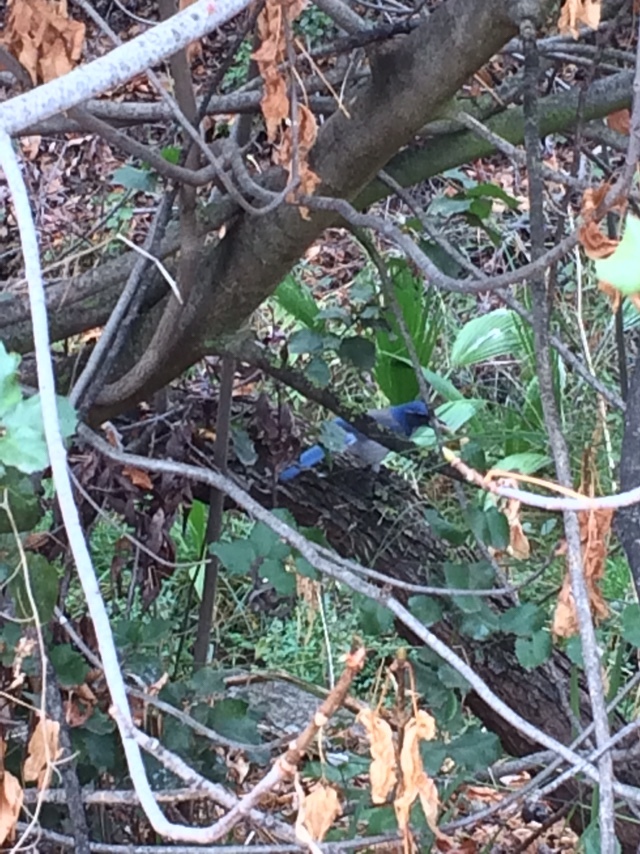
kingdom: Animalia
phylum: Chordata
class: Aves
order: Passeriformes
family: Corvidae
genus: Aphelocoma
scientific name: Aphelocoma californica
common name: California scrub-jay
